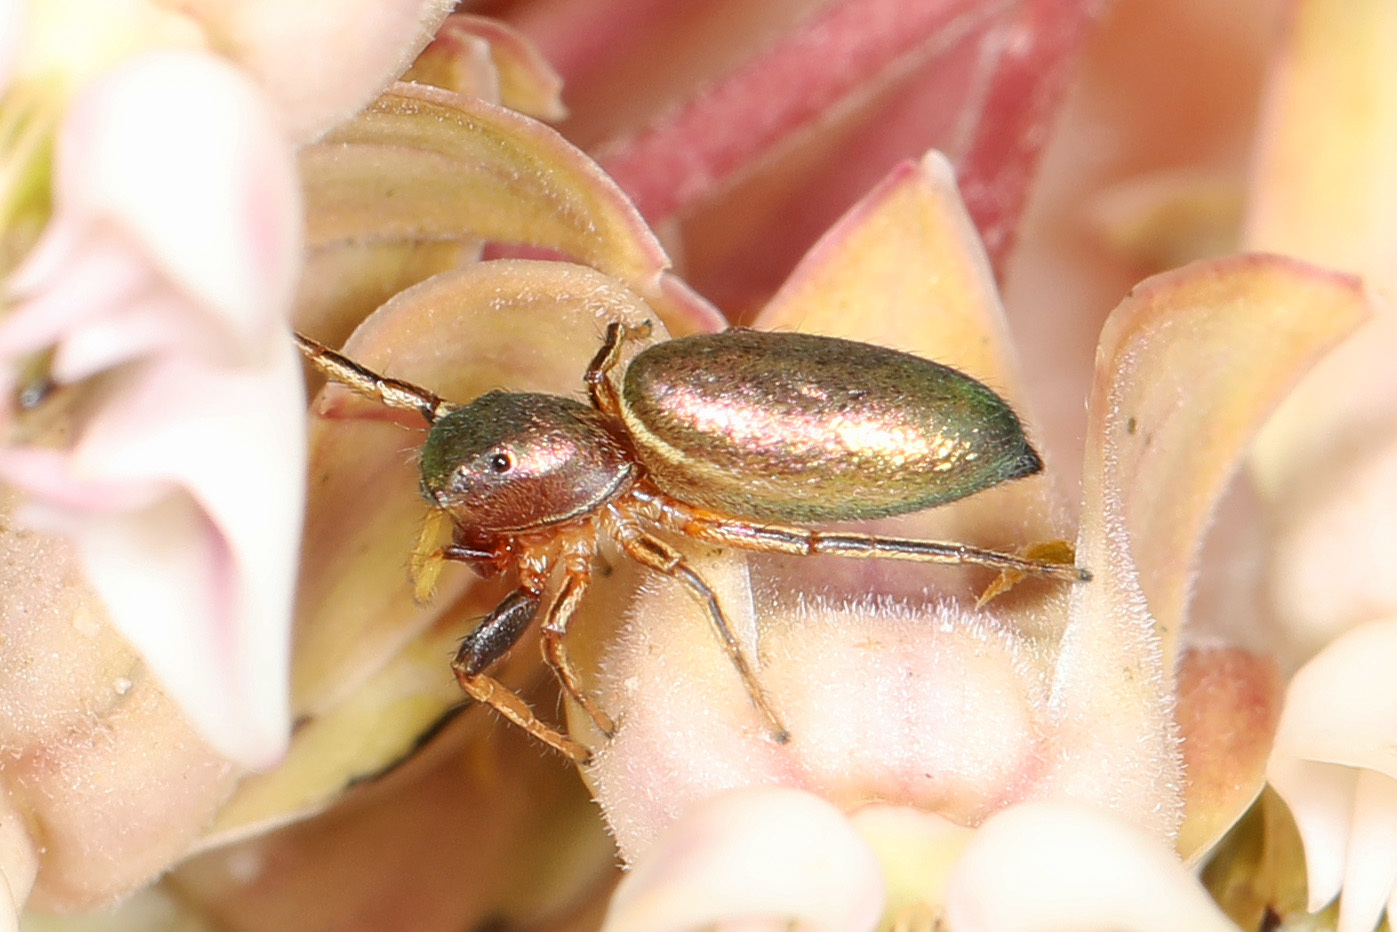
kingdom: Animalia
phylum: Arthropoda
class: Arachnida
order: Araneae
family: Salticidae
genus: Tutelina
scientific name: Tutelina elegans
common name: Thin-spined jumping spider
